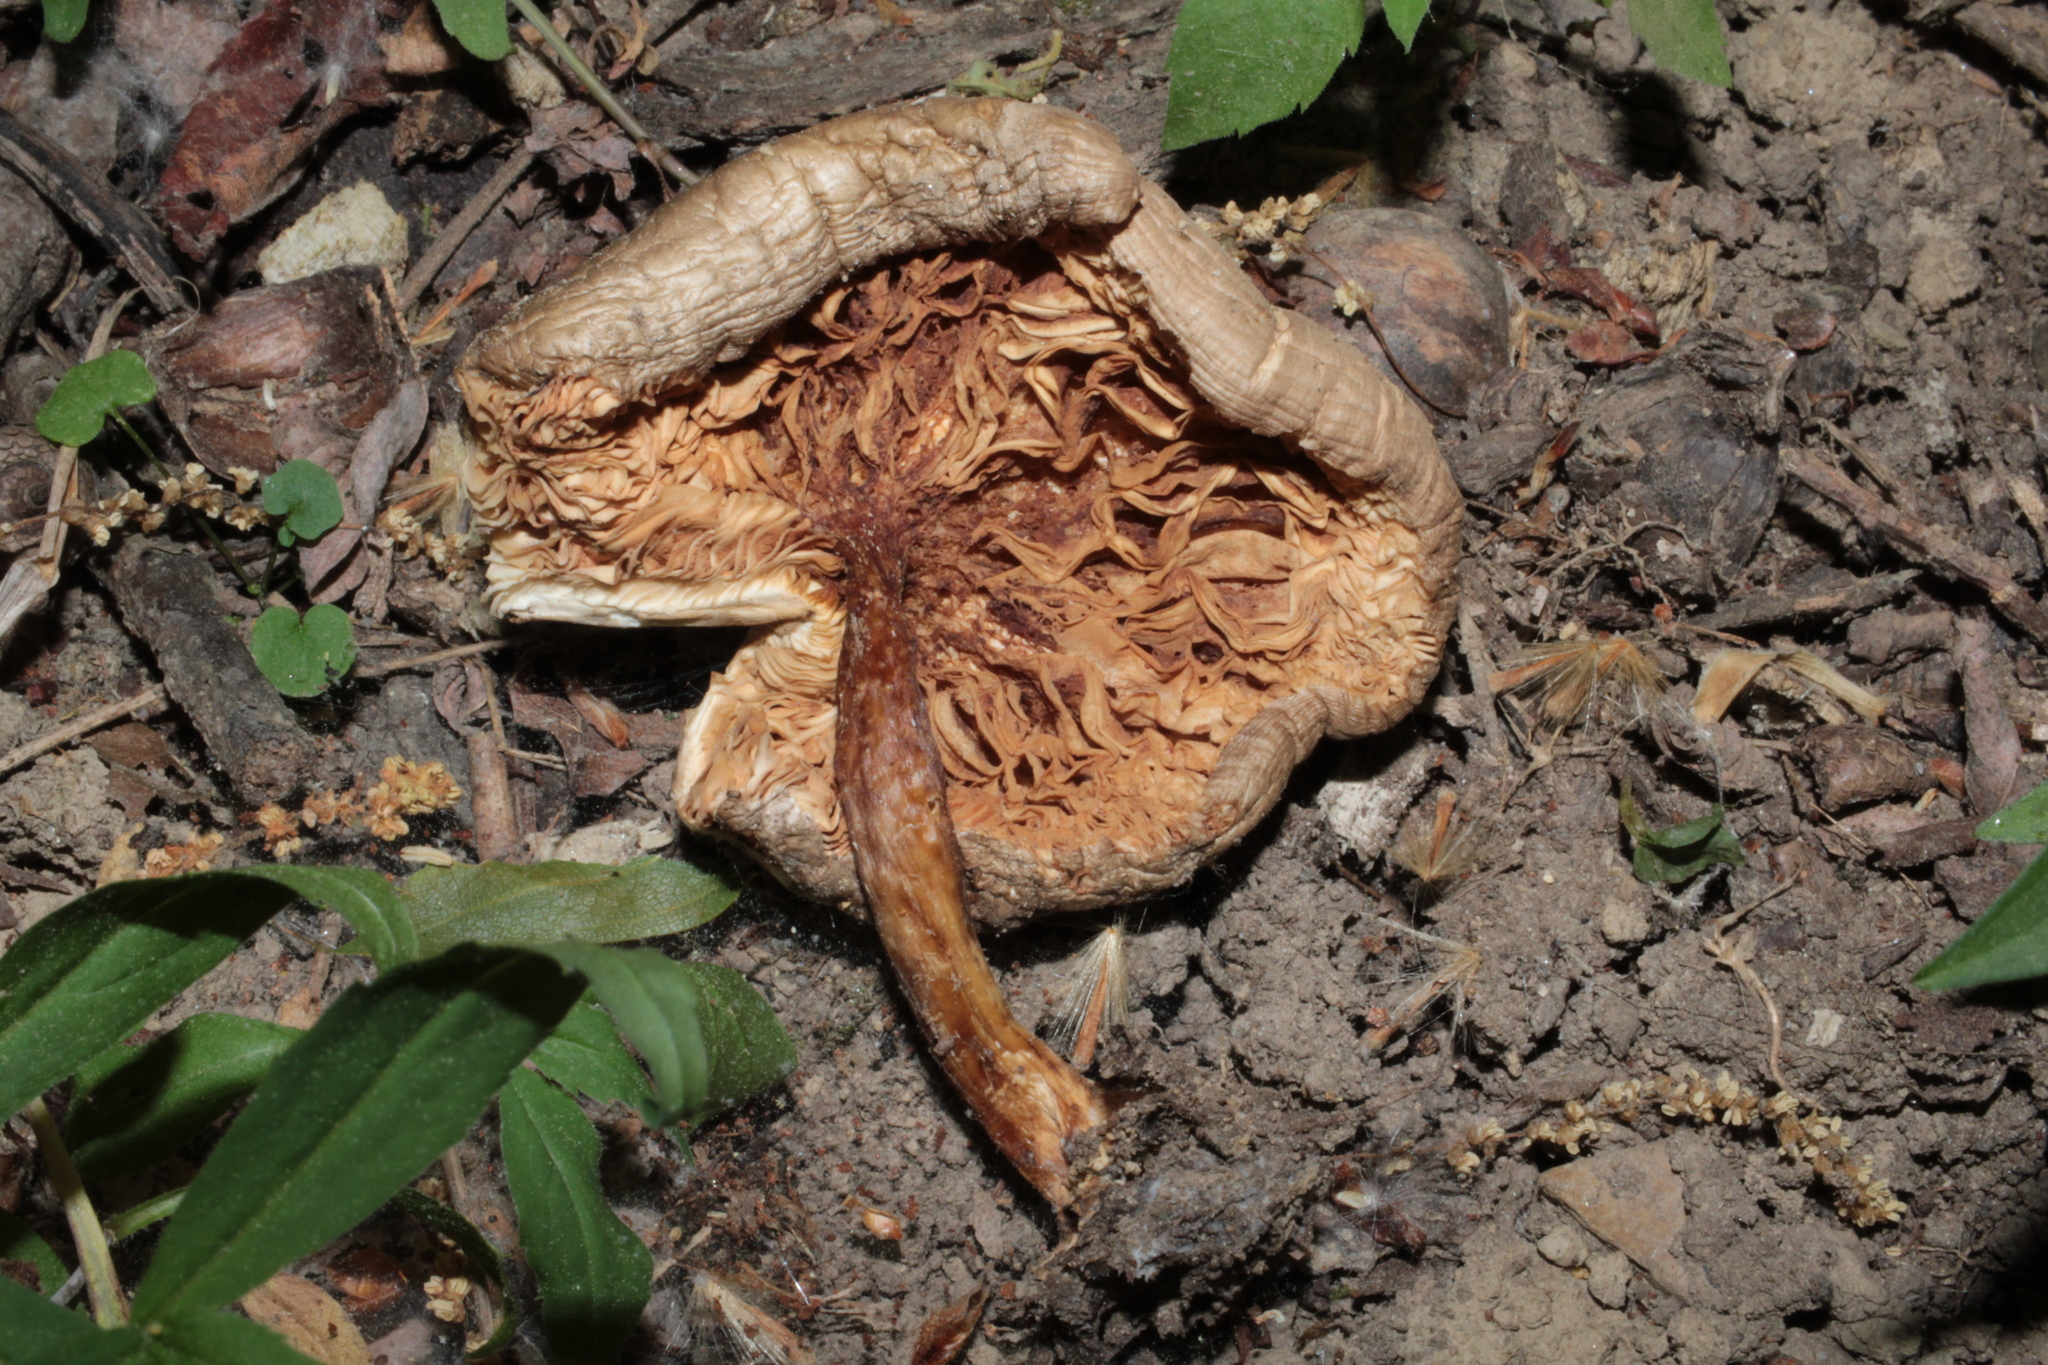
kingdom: Fungi
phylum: Basidiomycota
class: Agaricomycetes
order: Agaricales
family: Pluteaceae
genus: Pluteus
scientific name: Pluteus cervinus
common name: Deer shield
